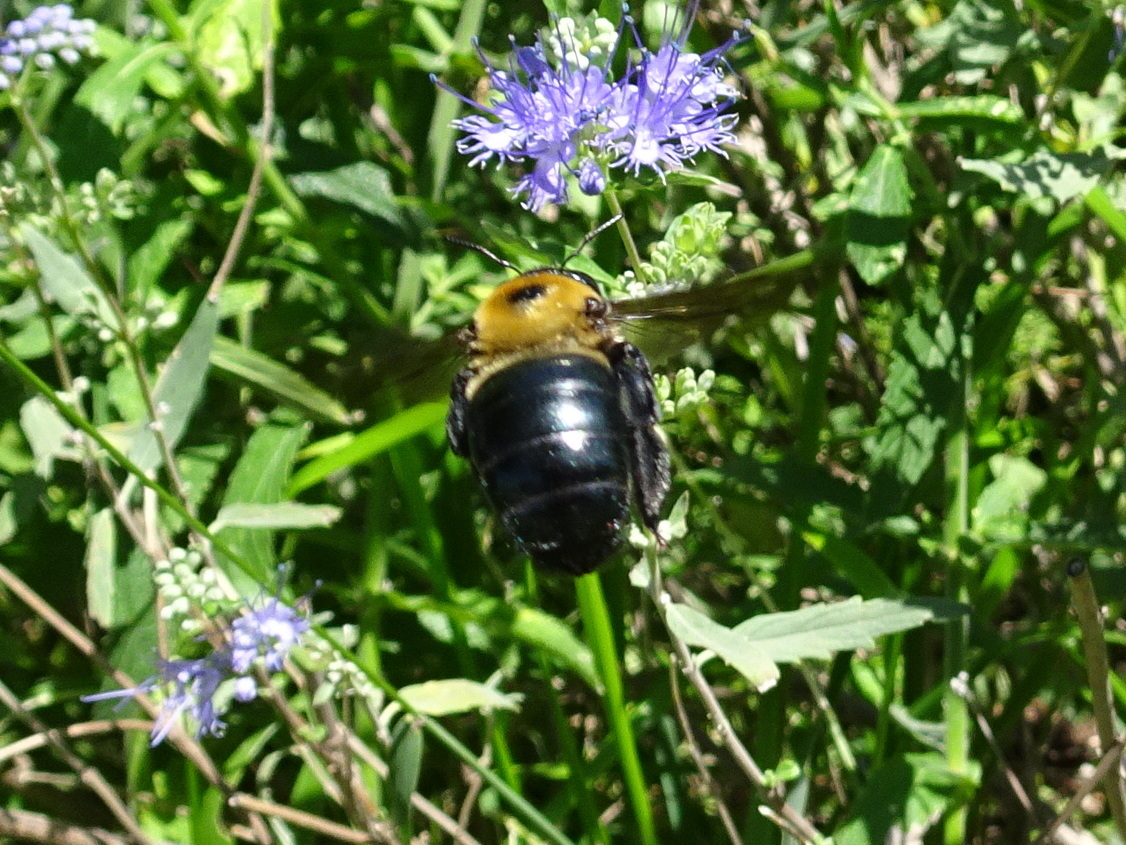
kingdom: Animalia
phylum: Arthropoda
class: Insecta
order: Hymenoptera
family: Apidae
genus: Xylocopa
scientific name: Xylocopa virginica
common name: Carpenter bee
